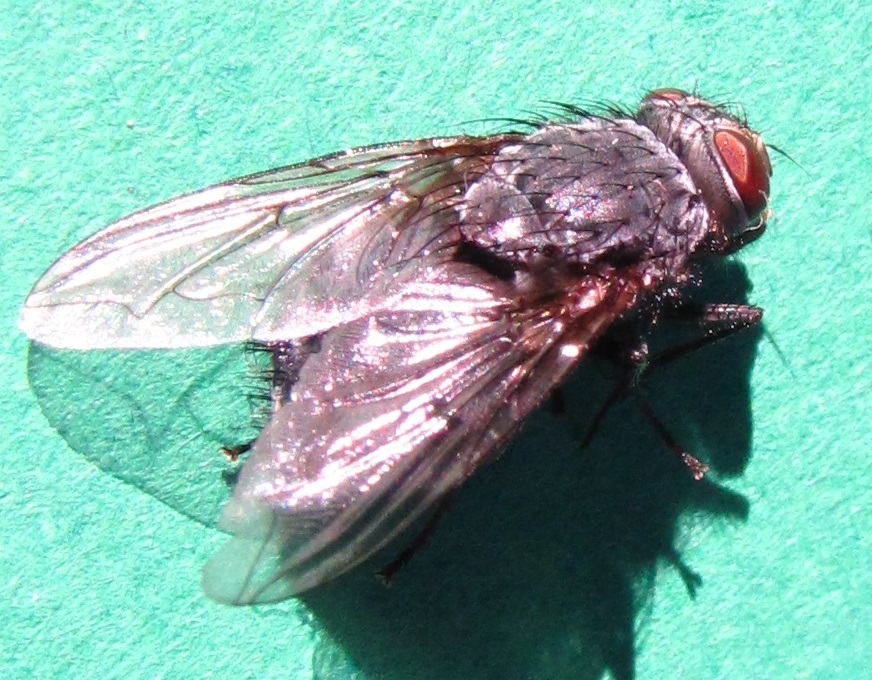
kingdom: Animalia
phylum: Arthropoda
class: Insecta
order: Diptera
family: Calliphoridae
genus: Calliphora
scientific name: Calliphora vicina
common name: Common blow flie
